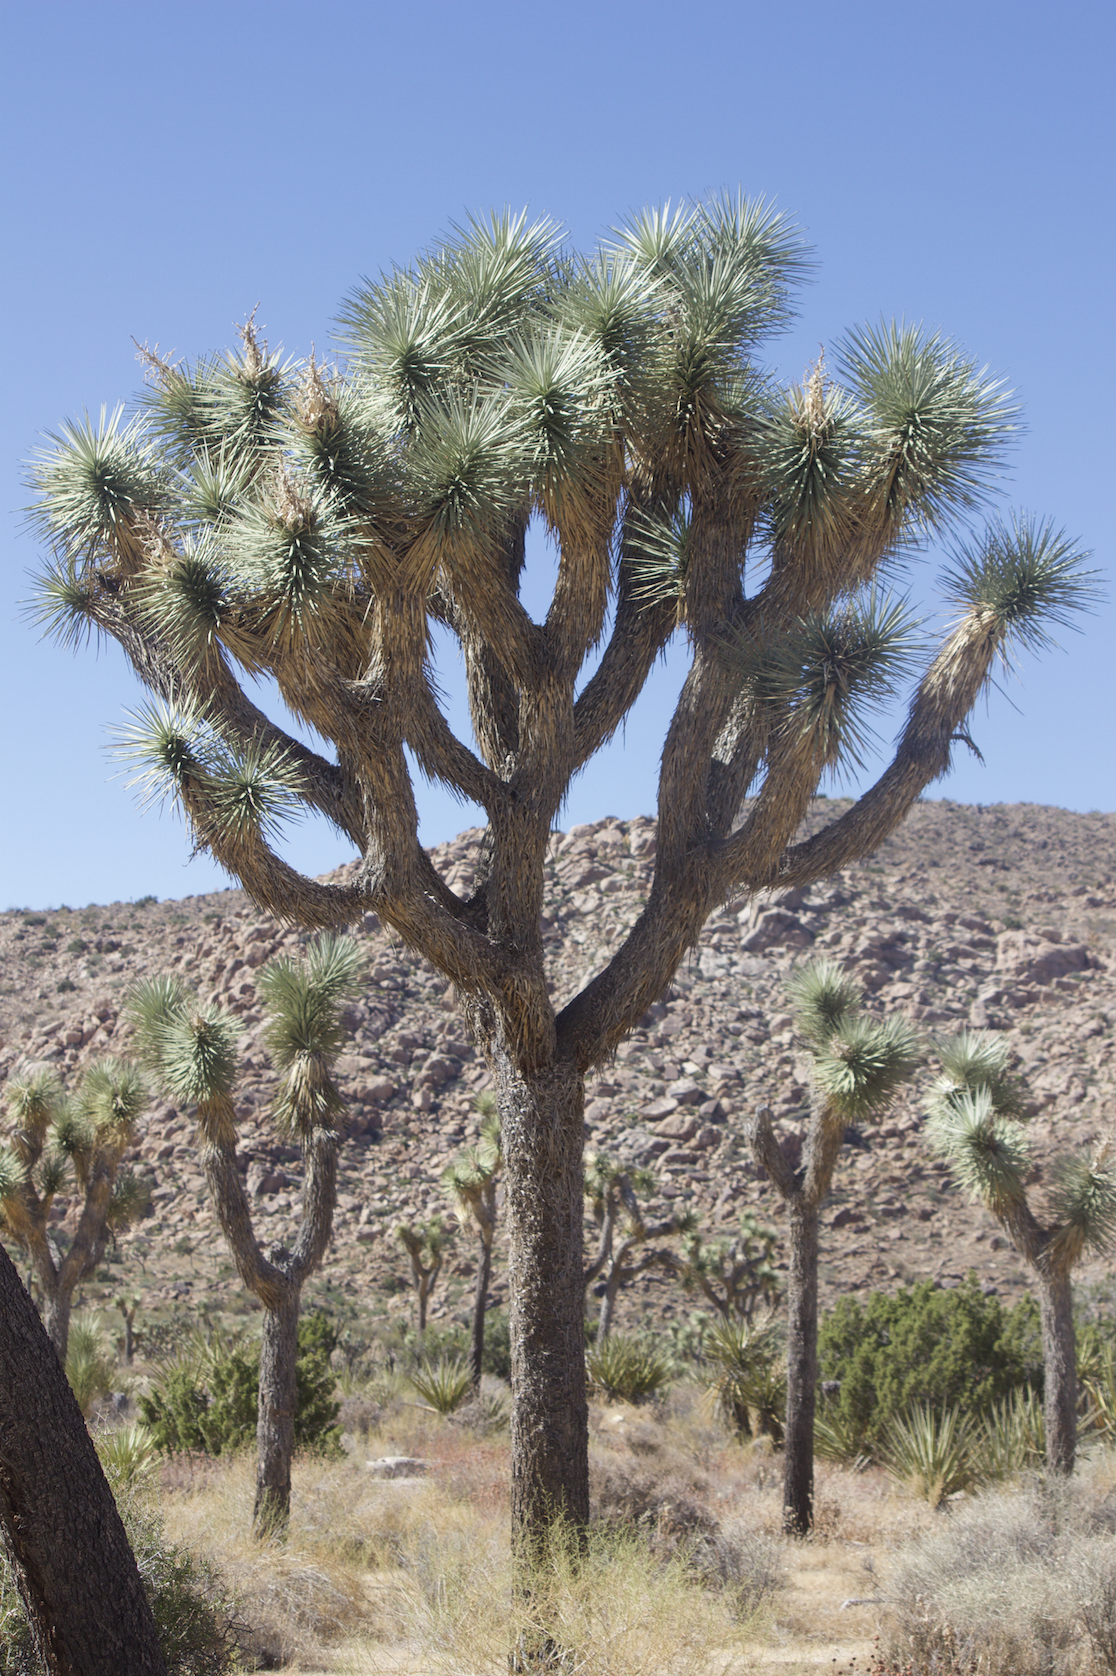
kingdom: Plantae
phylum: Tracheophyta
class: Liliopsida
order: Asparagales
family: Asparagaceae
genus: Yucca
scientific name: Yucca brevifolia
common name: Joshua tree
